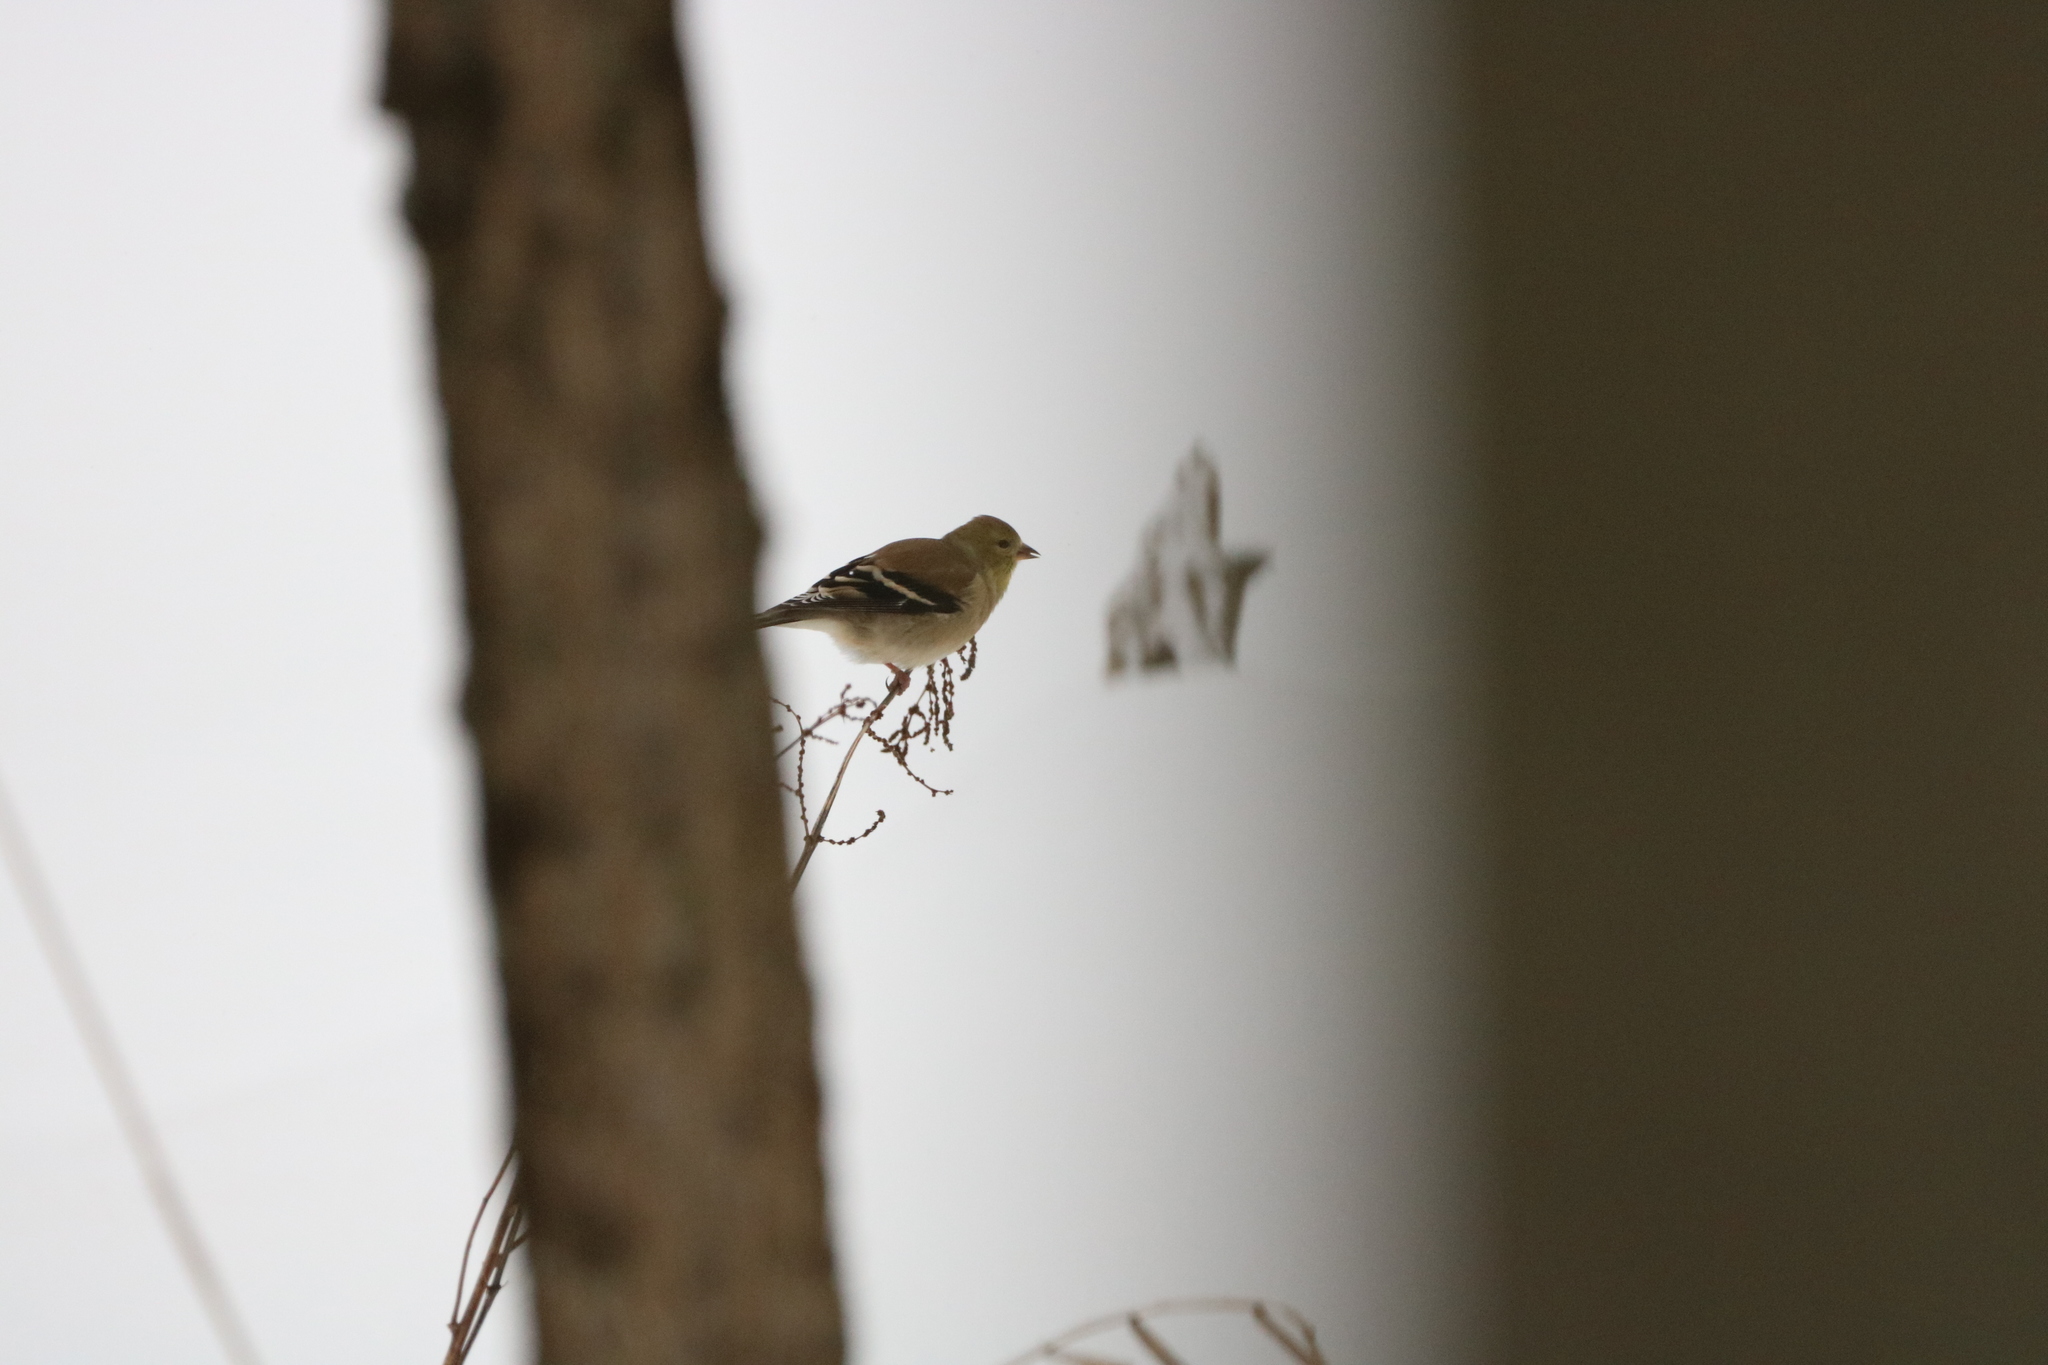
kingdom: Animalia
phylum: Chordata
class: Aves
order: Passeriformes
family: Fringillidae
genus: Spinus
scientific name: Spinus tristis
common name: American goldfinch
